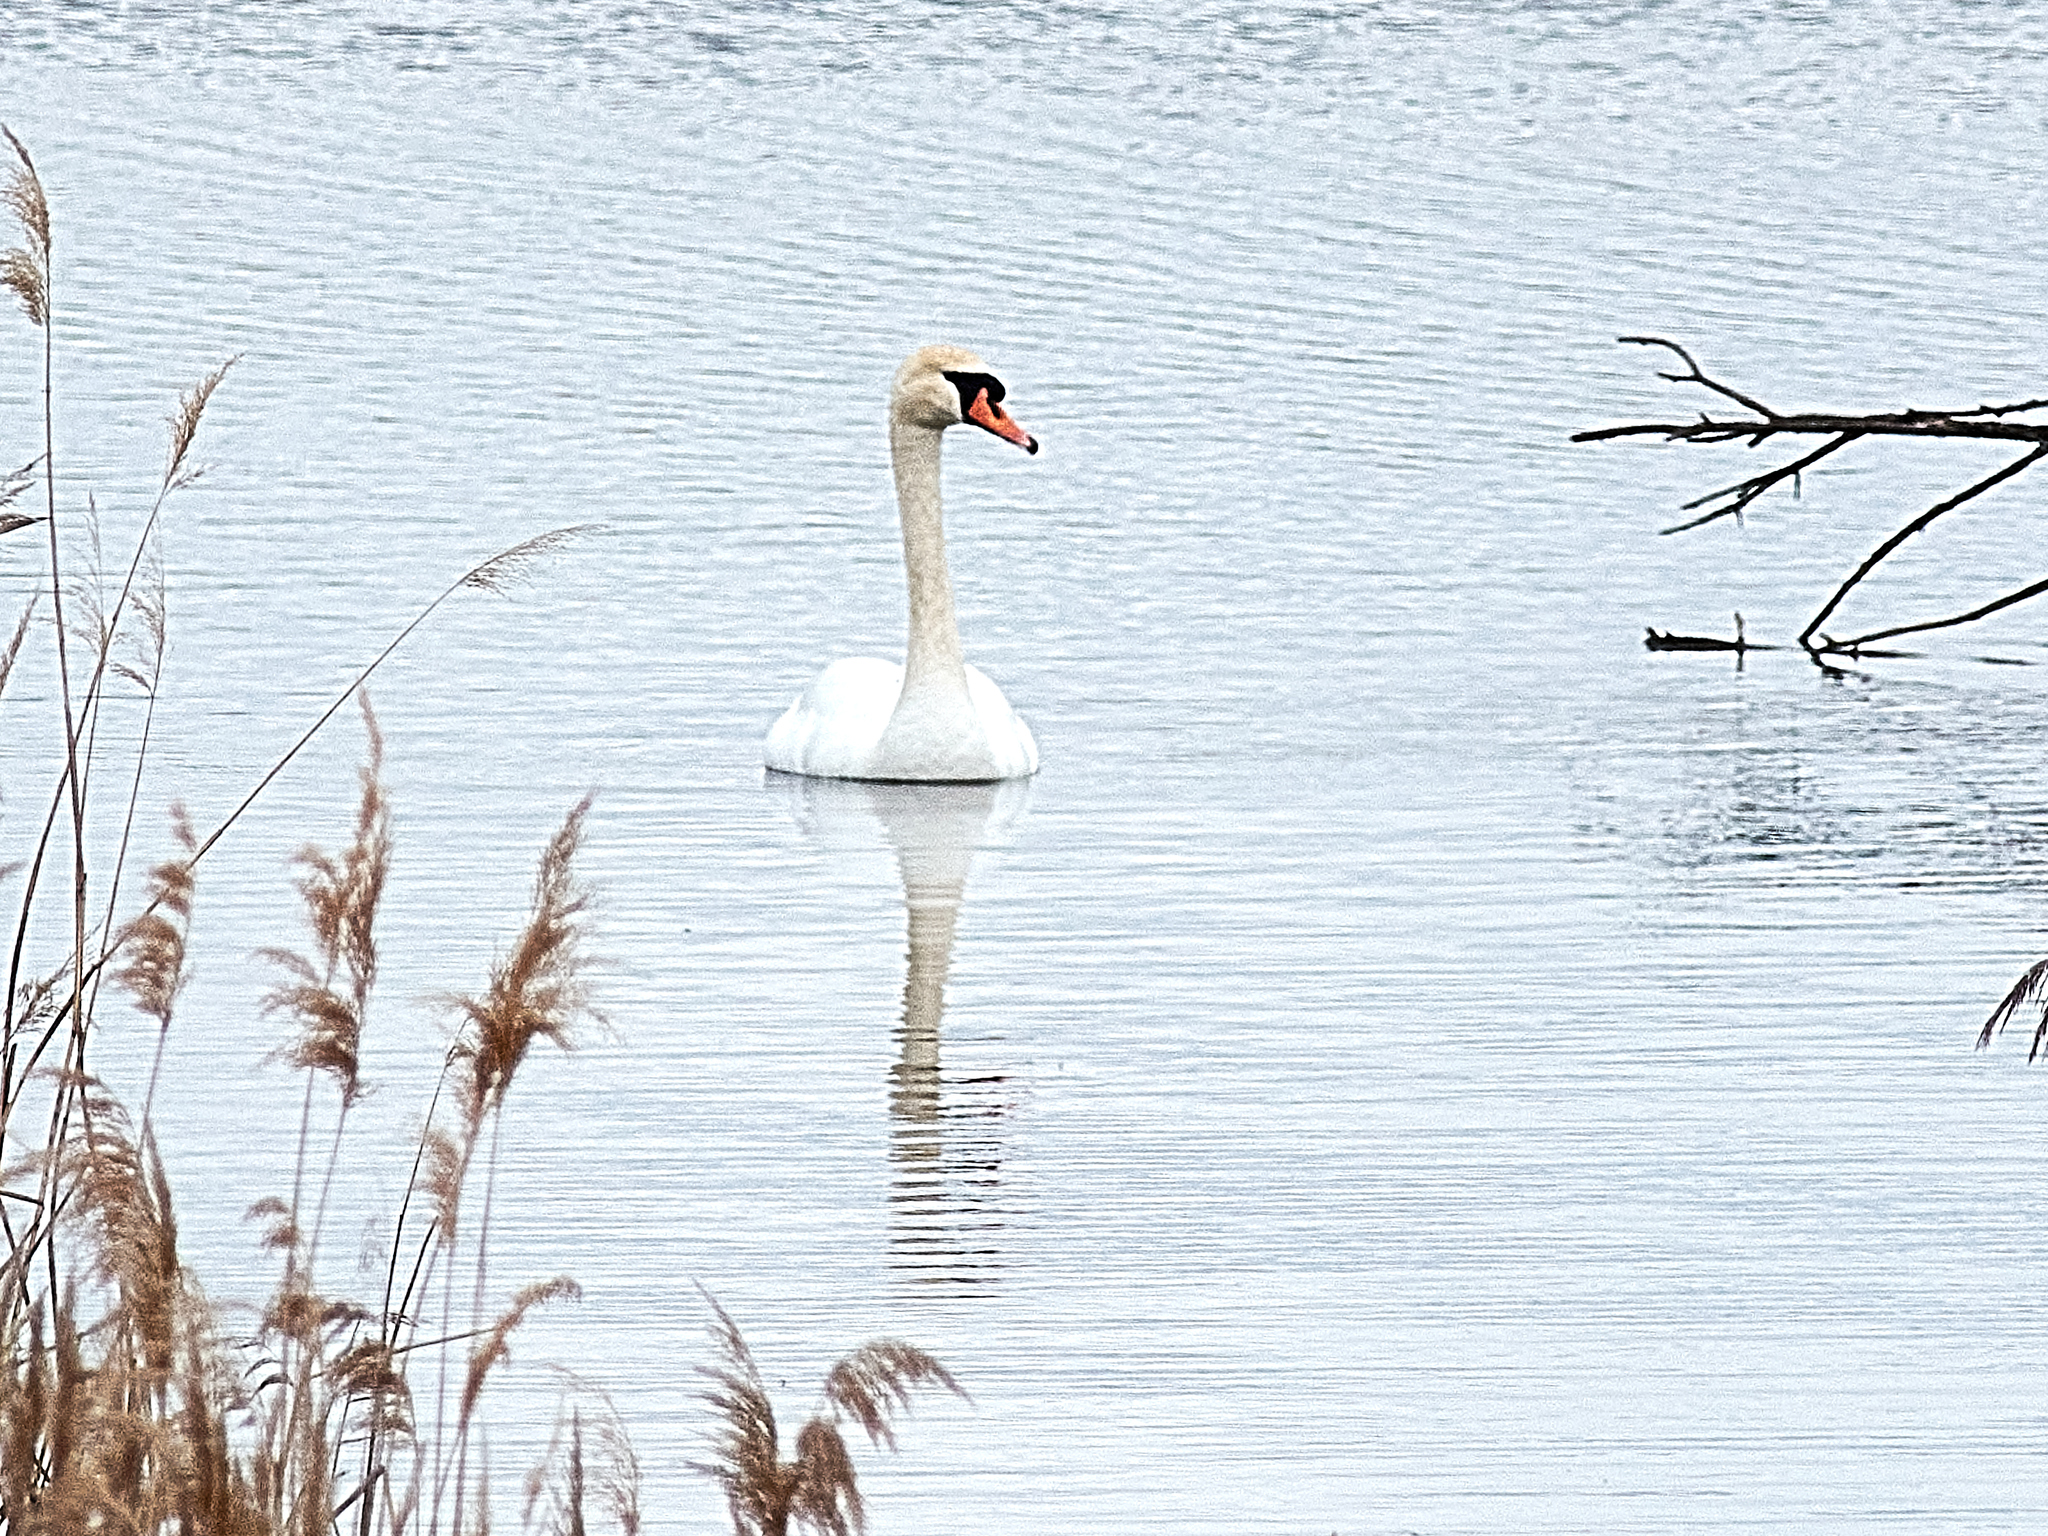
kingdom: Animalia
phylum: Chordata
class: Aves
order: Anseriformes
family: Anatidae
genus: Cygnus
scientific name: Cygnus olor
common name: Mute swan
